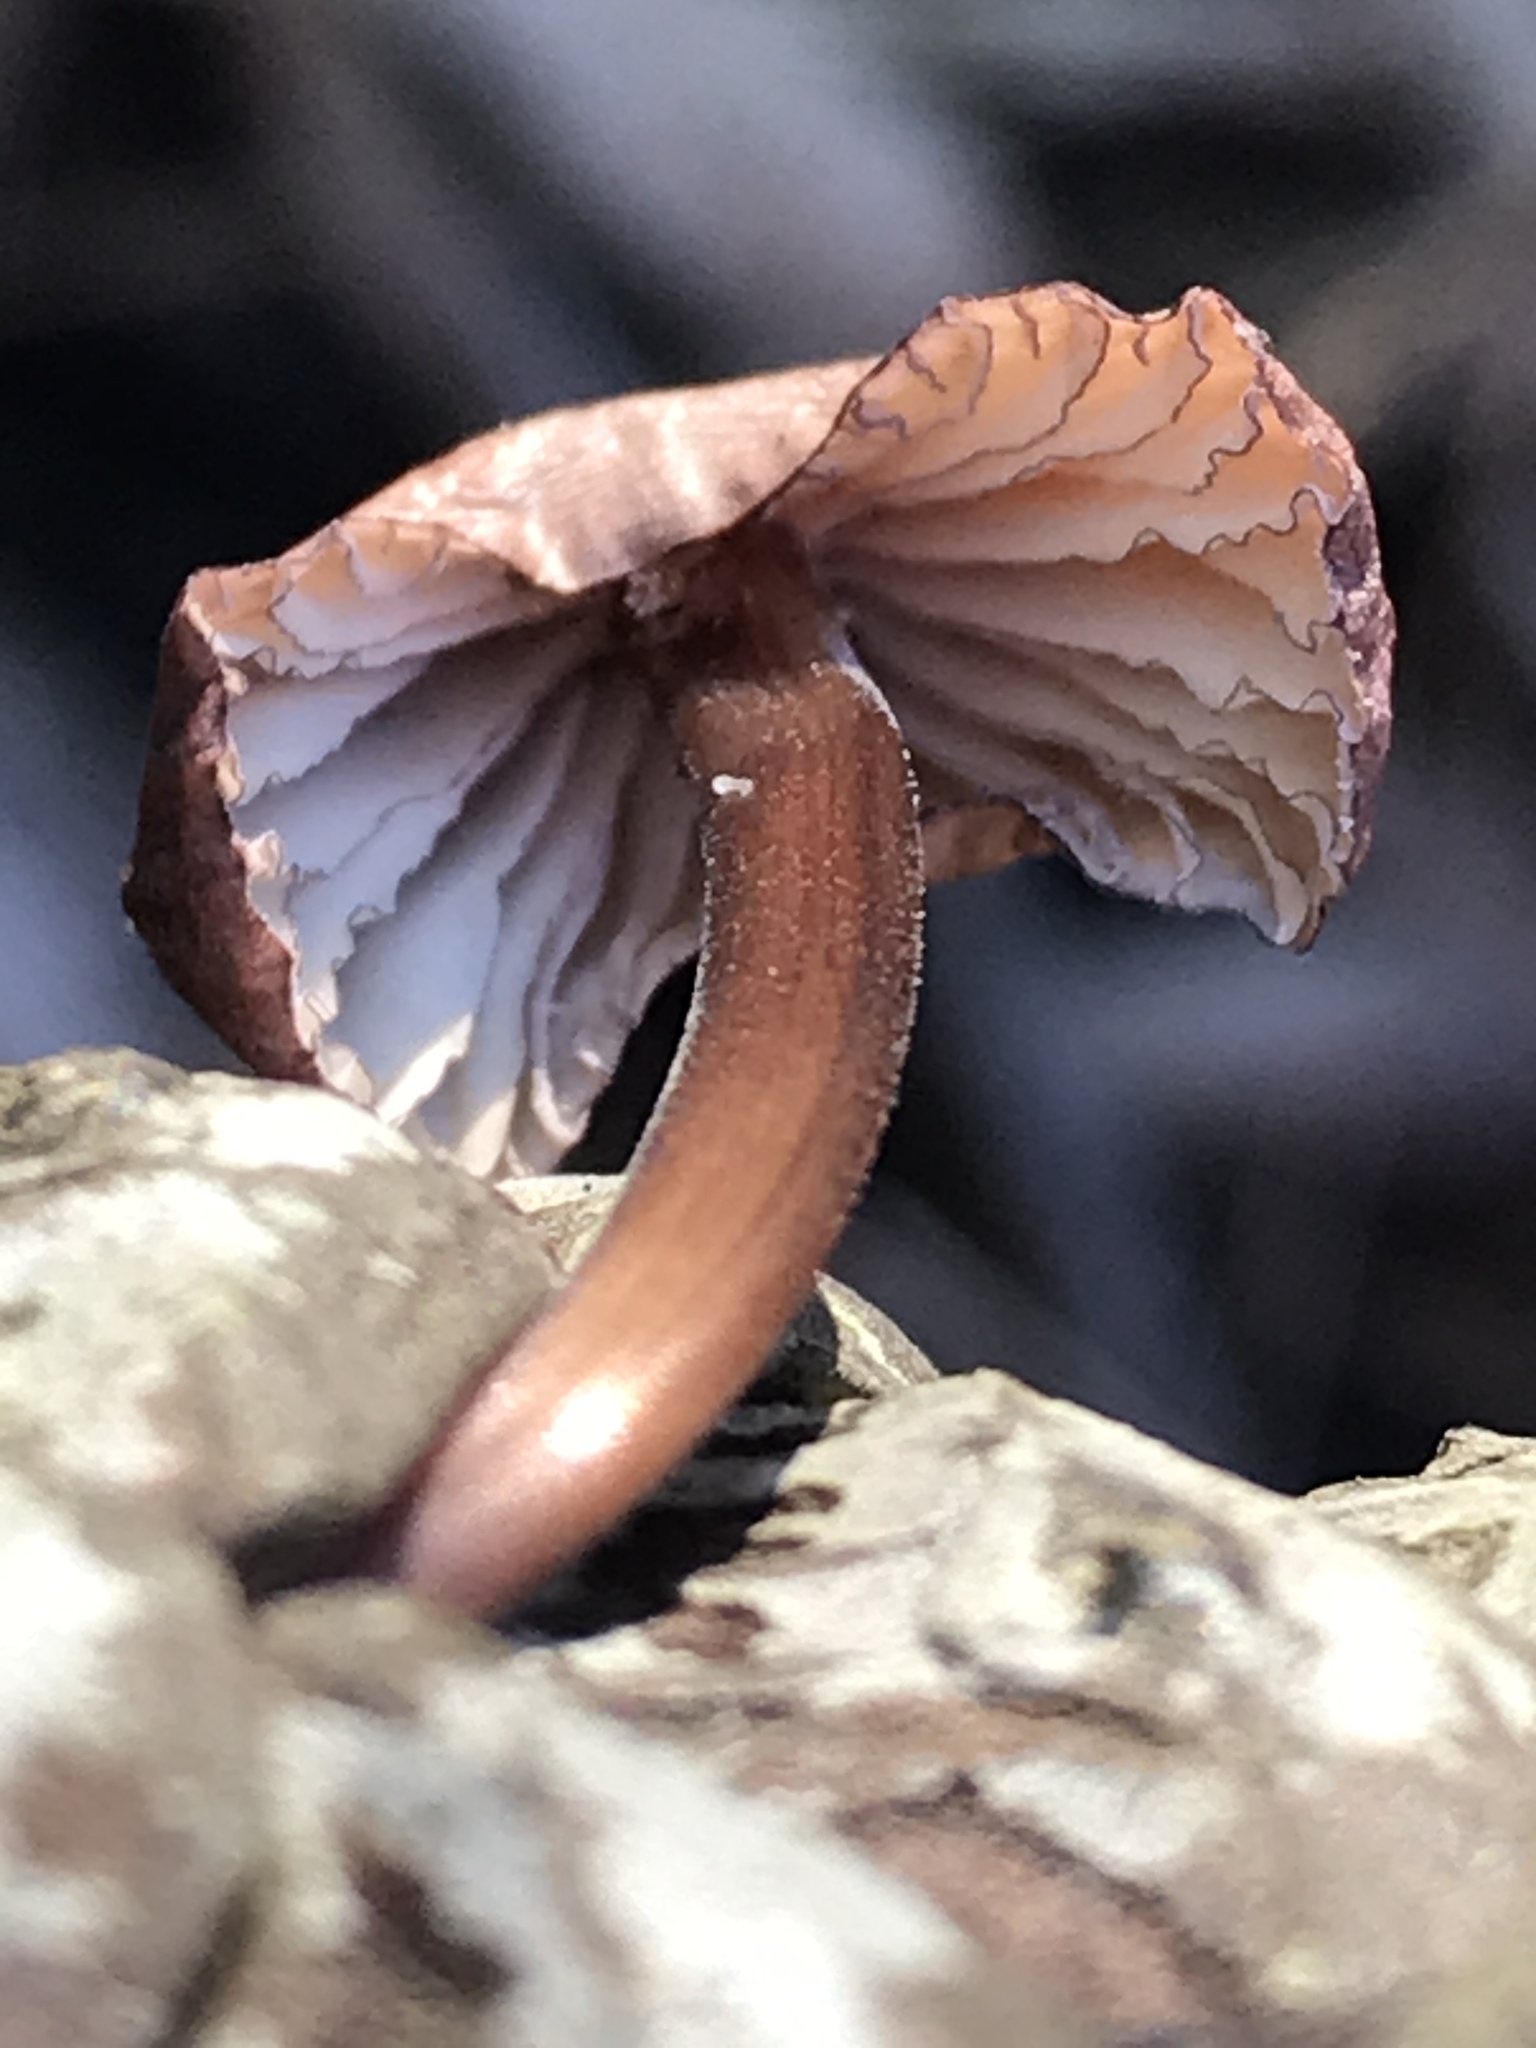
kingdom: Fungi
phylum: Basidiomycota
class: Agaricomycetes
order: Agaricales
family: Mycenaceae
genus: Mycena
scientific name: Mycena purpureofusca
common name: Purple edge bonnet
